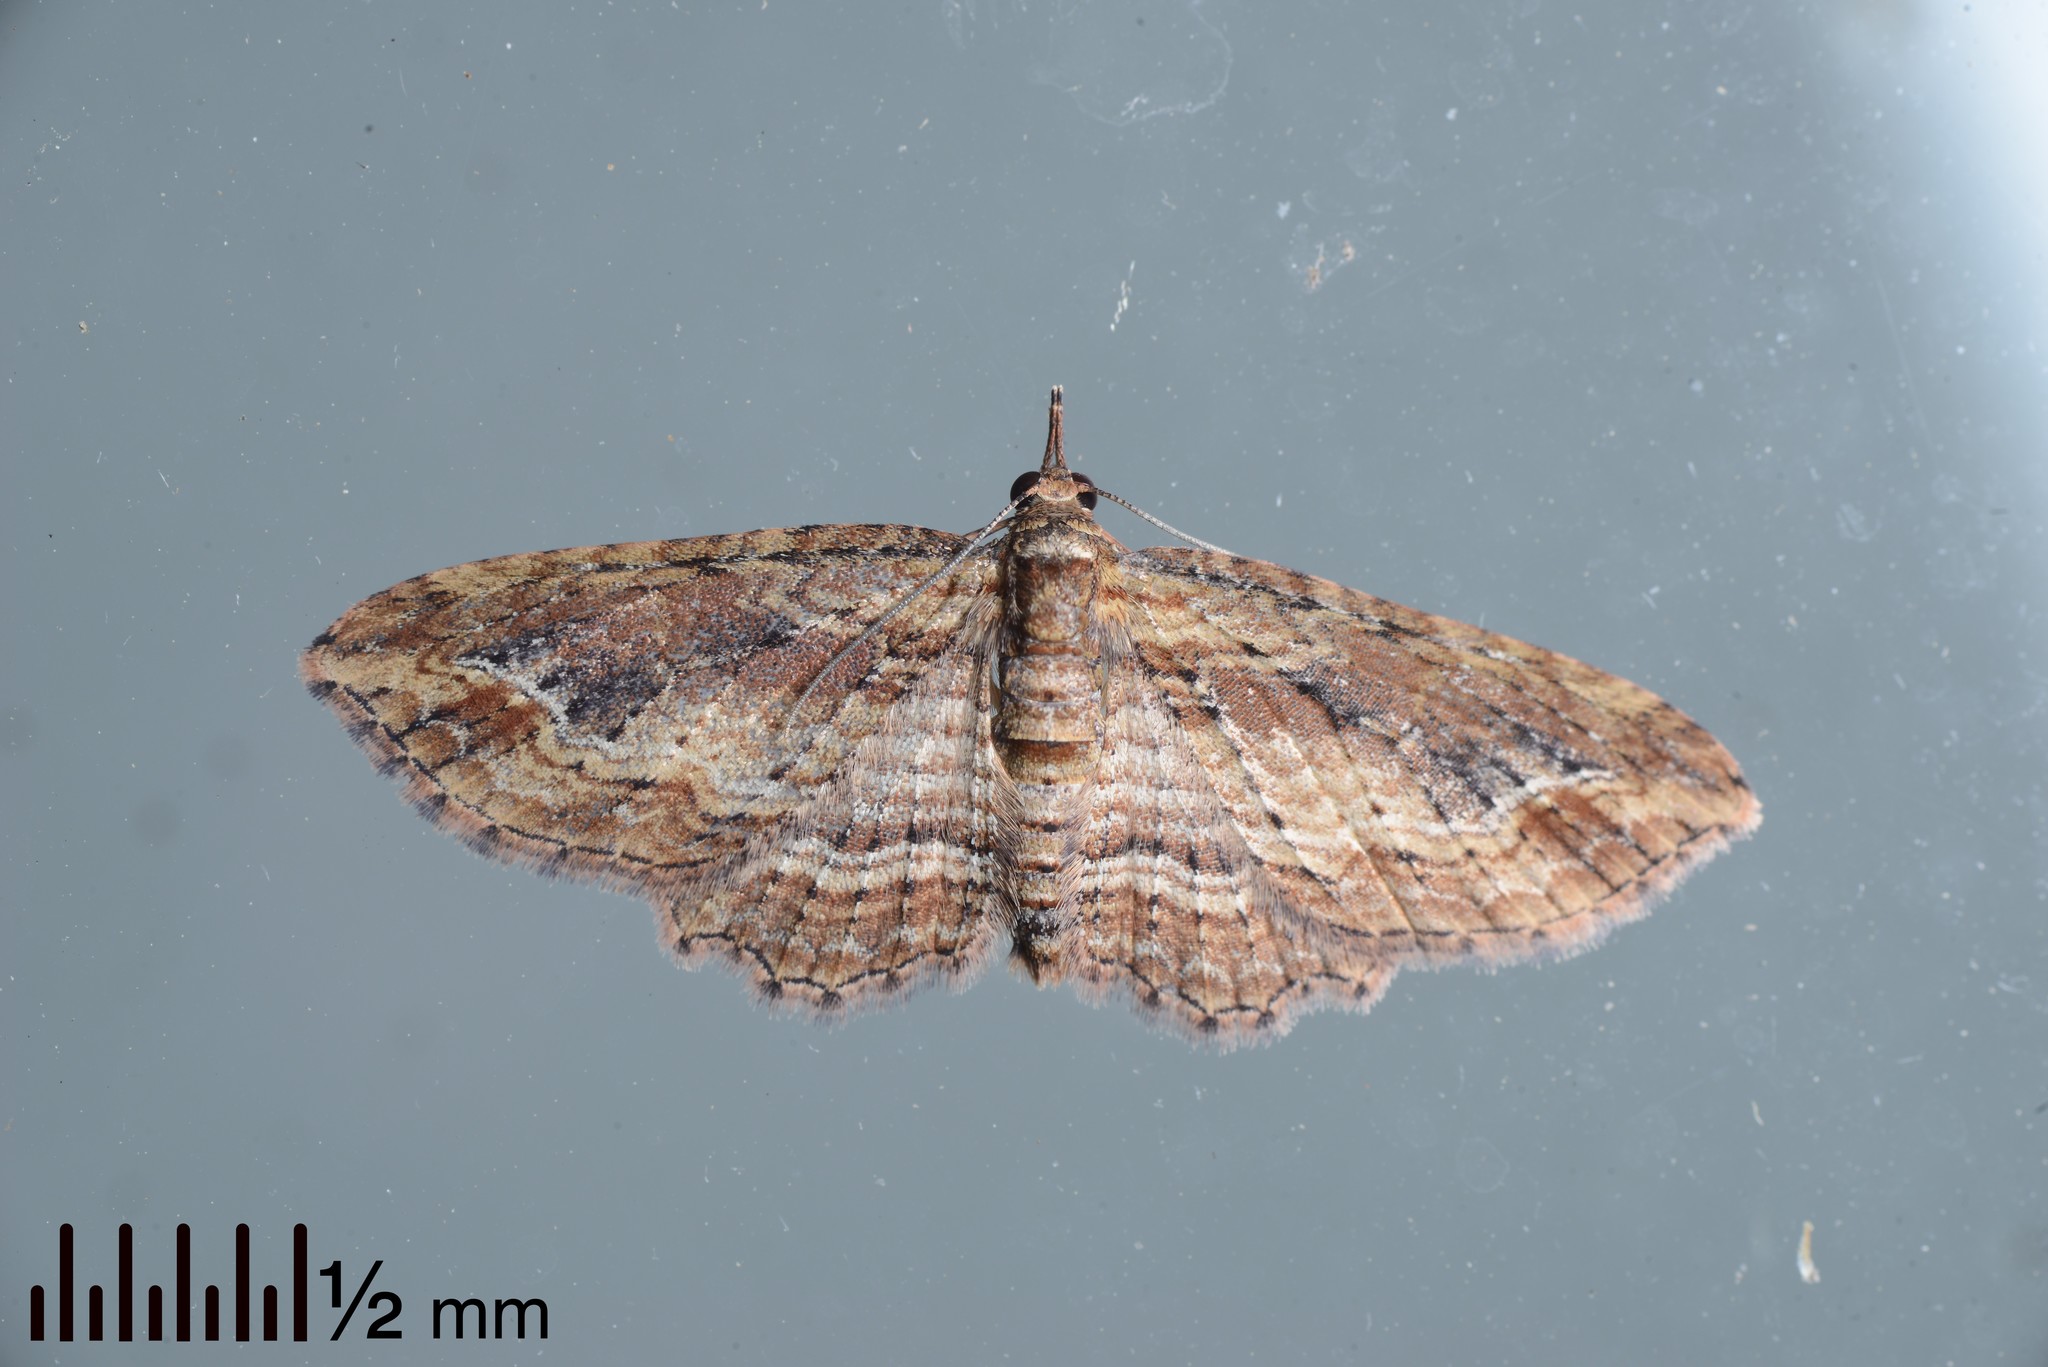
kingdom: Animalia
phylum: Arthropoda
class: Insecta
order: Lepidoptera
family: Geometridae
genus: Chloroclystis
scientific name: Chloroclystis filata
